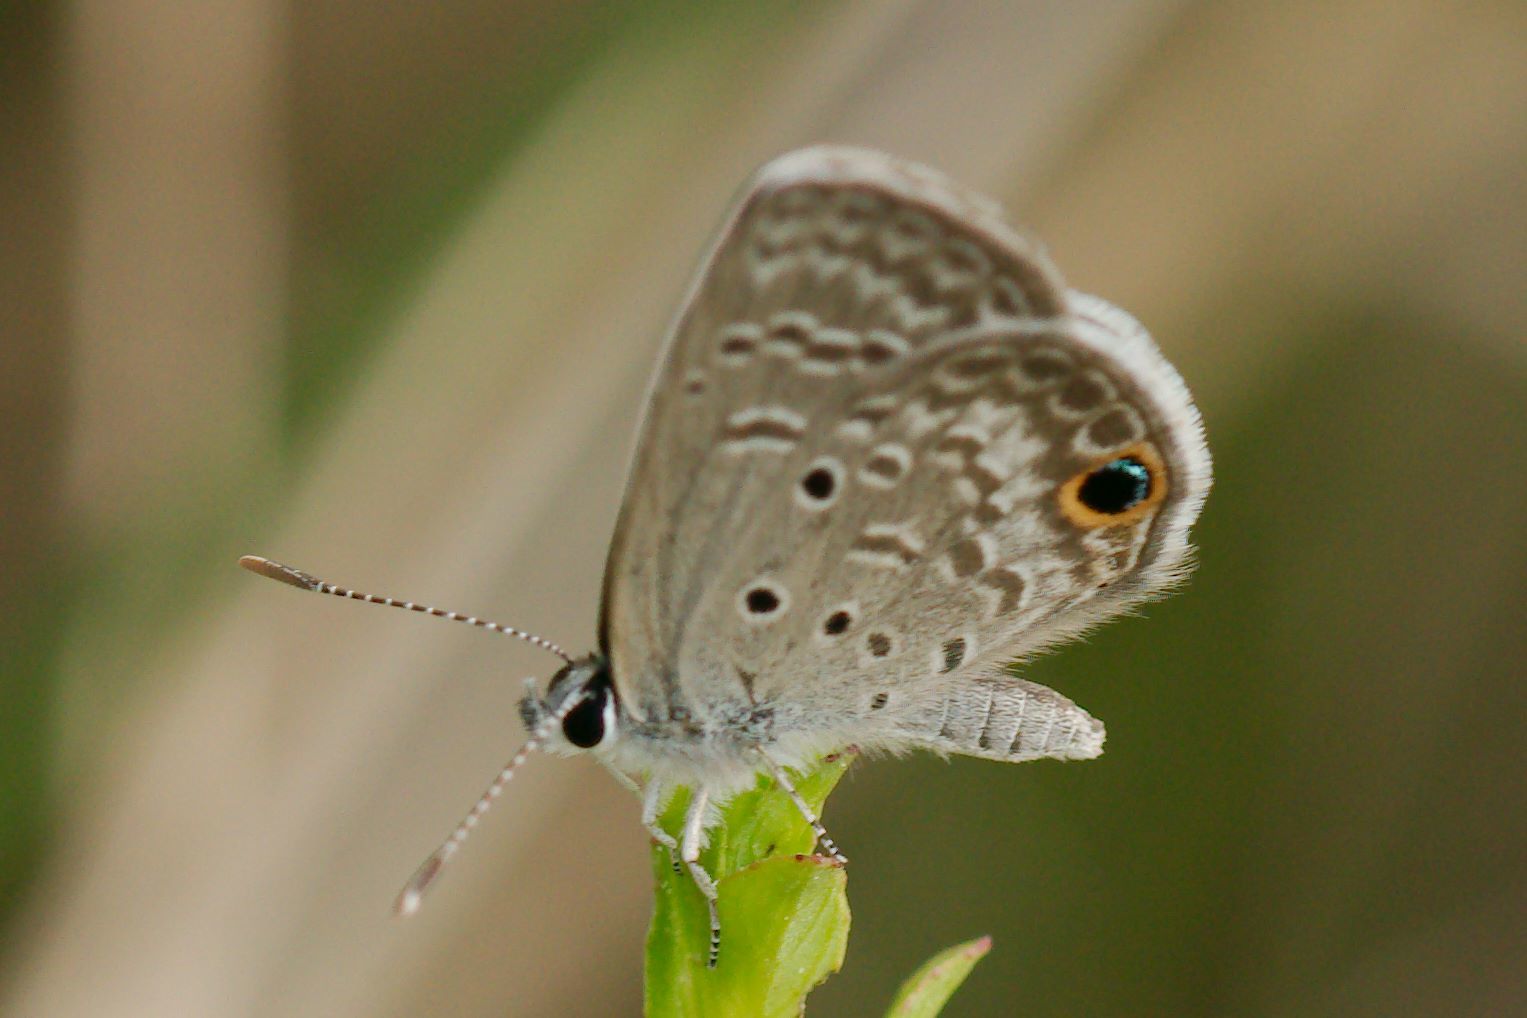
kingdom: Animalia
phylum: Arthropoda
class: Insecta
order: Lepidoptera
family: Lycaenidae
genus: Hemiargus
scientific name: Hemiargus ceraunus
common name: Ceraunus blue
